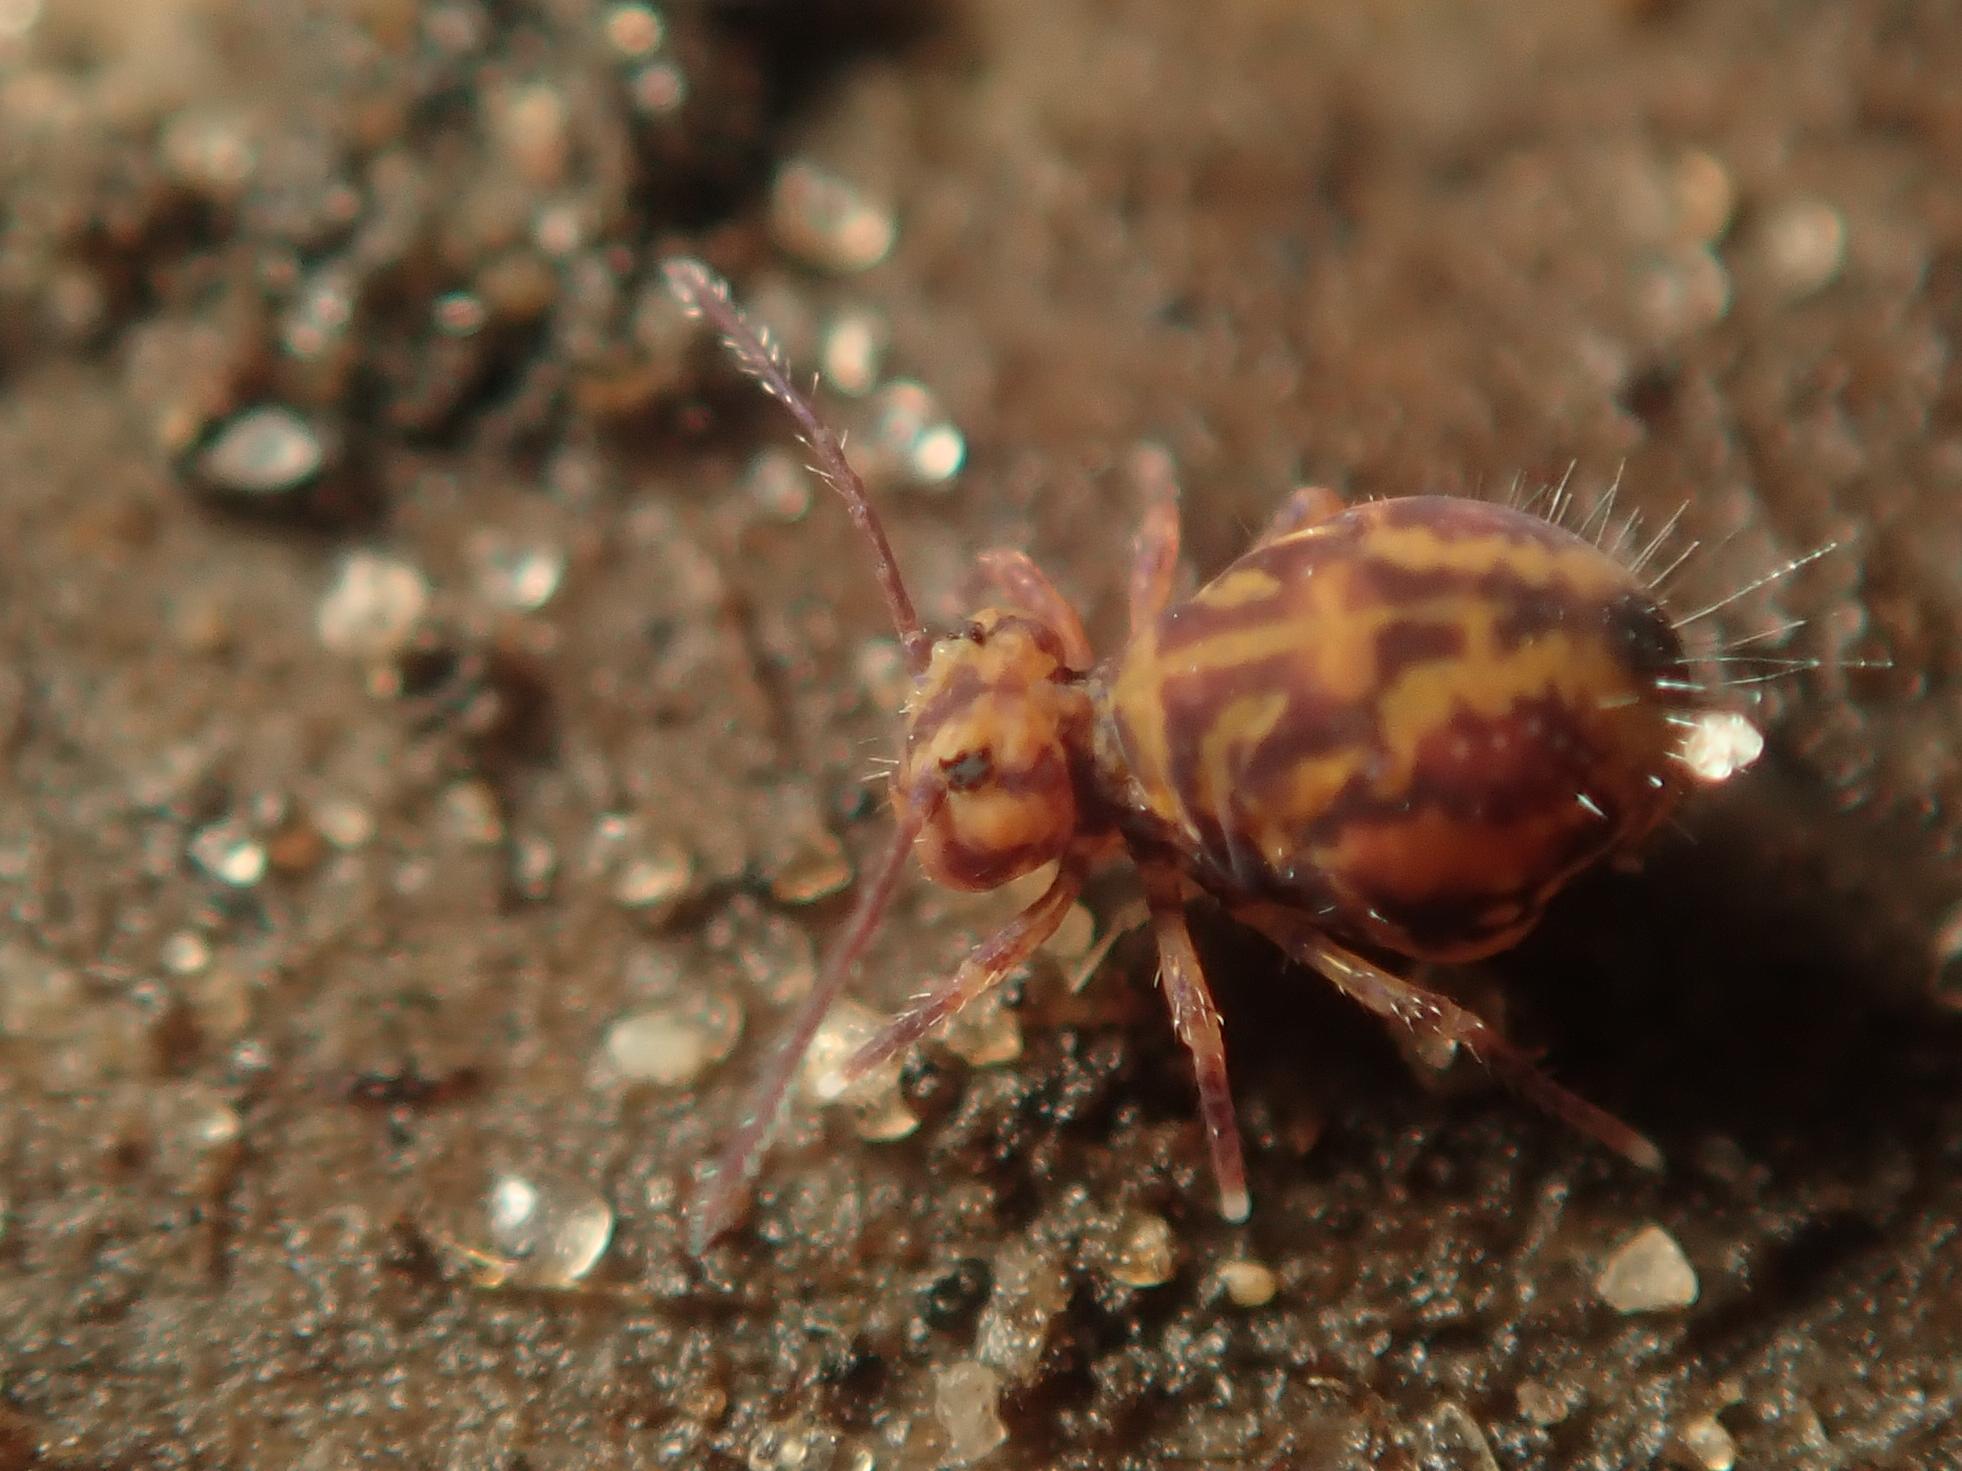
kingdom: Animalia
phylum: Arthropoda
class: Collembola
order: Symphypleona
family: Dicyrtomidae
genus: Dicyrtomina
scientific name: Dicyrtomina ornata
